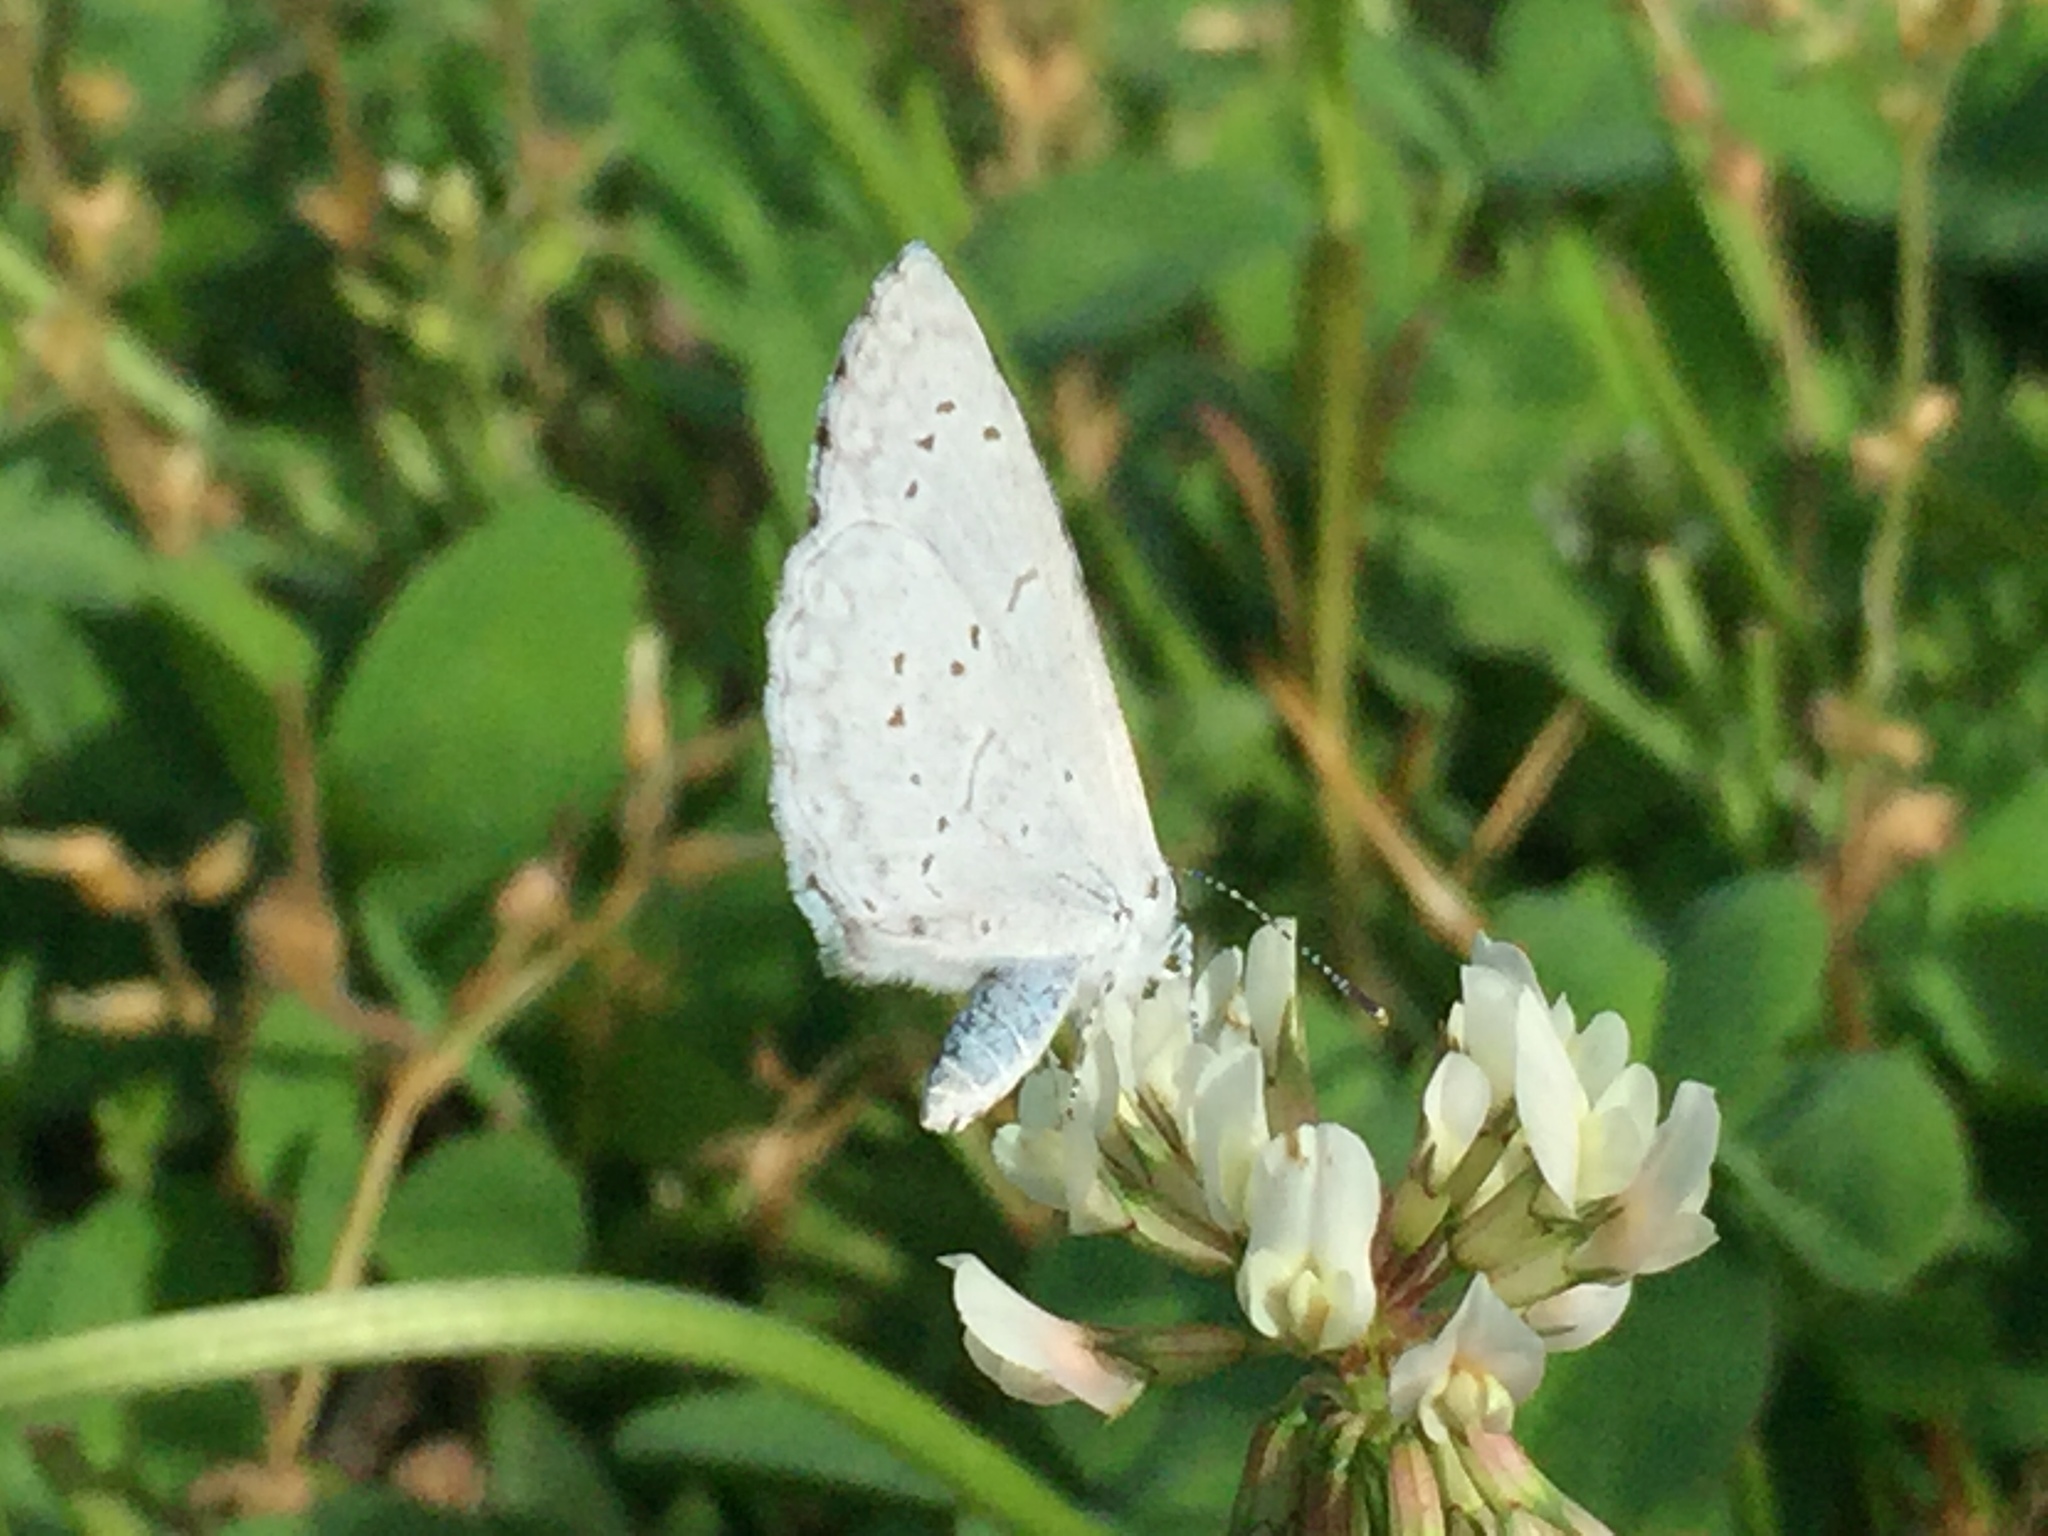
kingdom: Animalia
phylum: Arthropoda
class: Insecta
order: Lepidoptera
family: Lycaenidae
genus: Cyaniris
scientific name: Cyaniris neglecta
